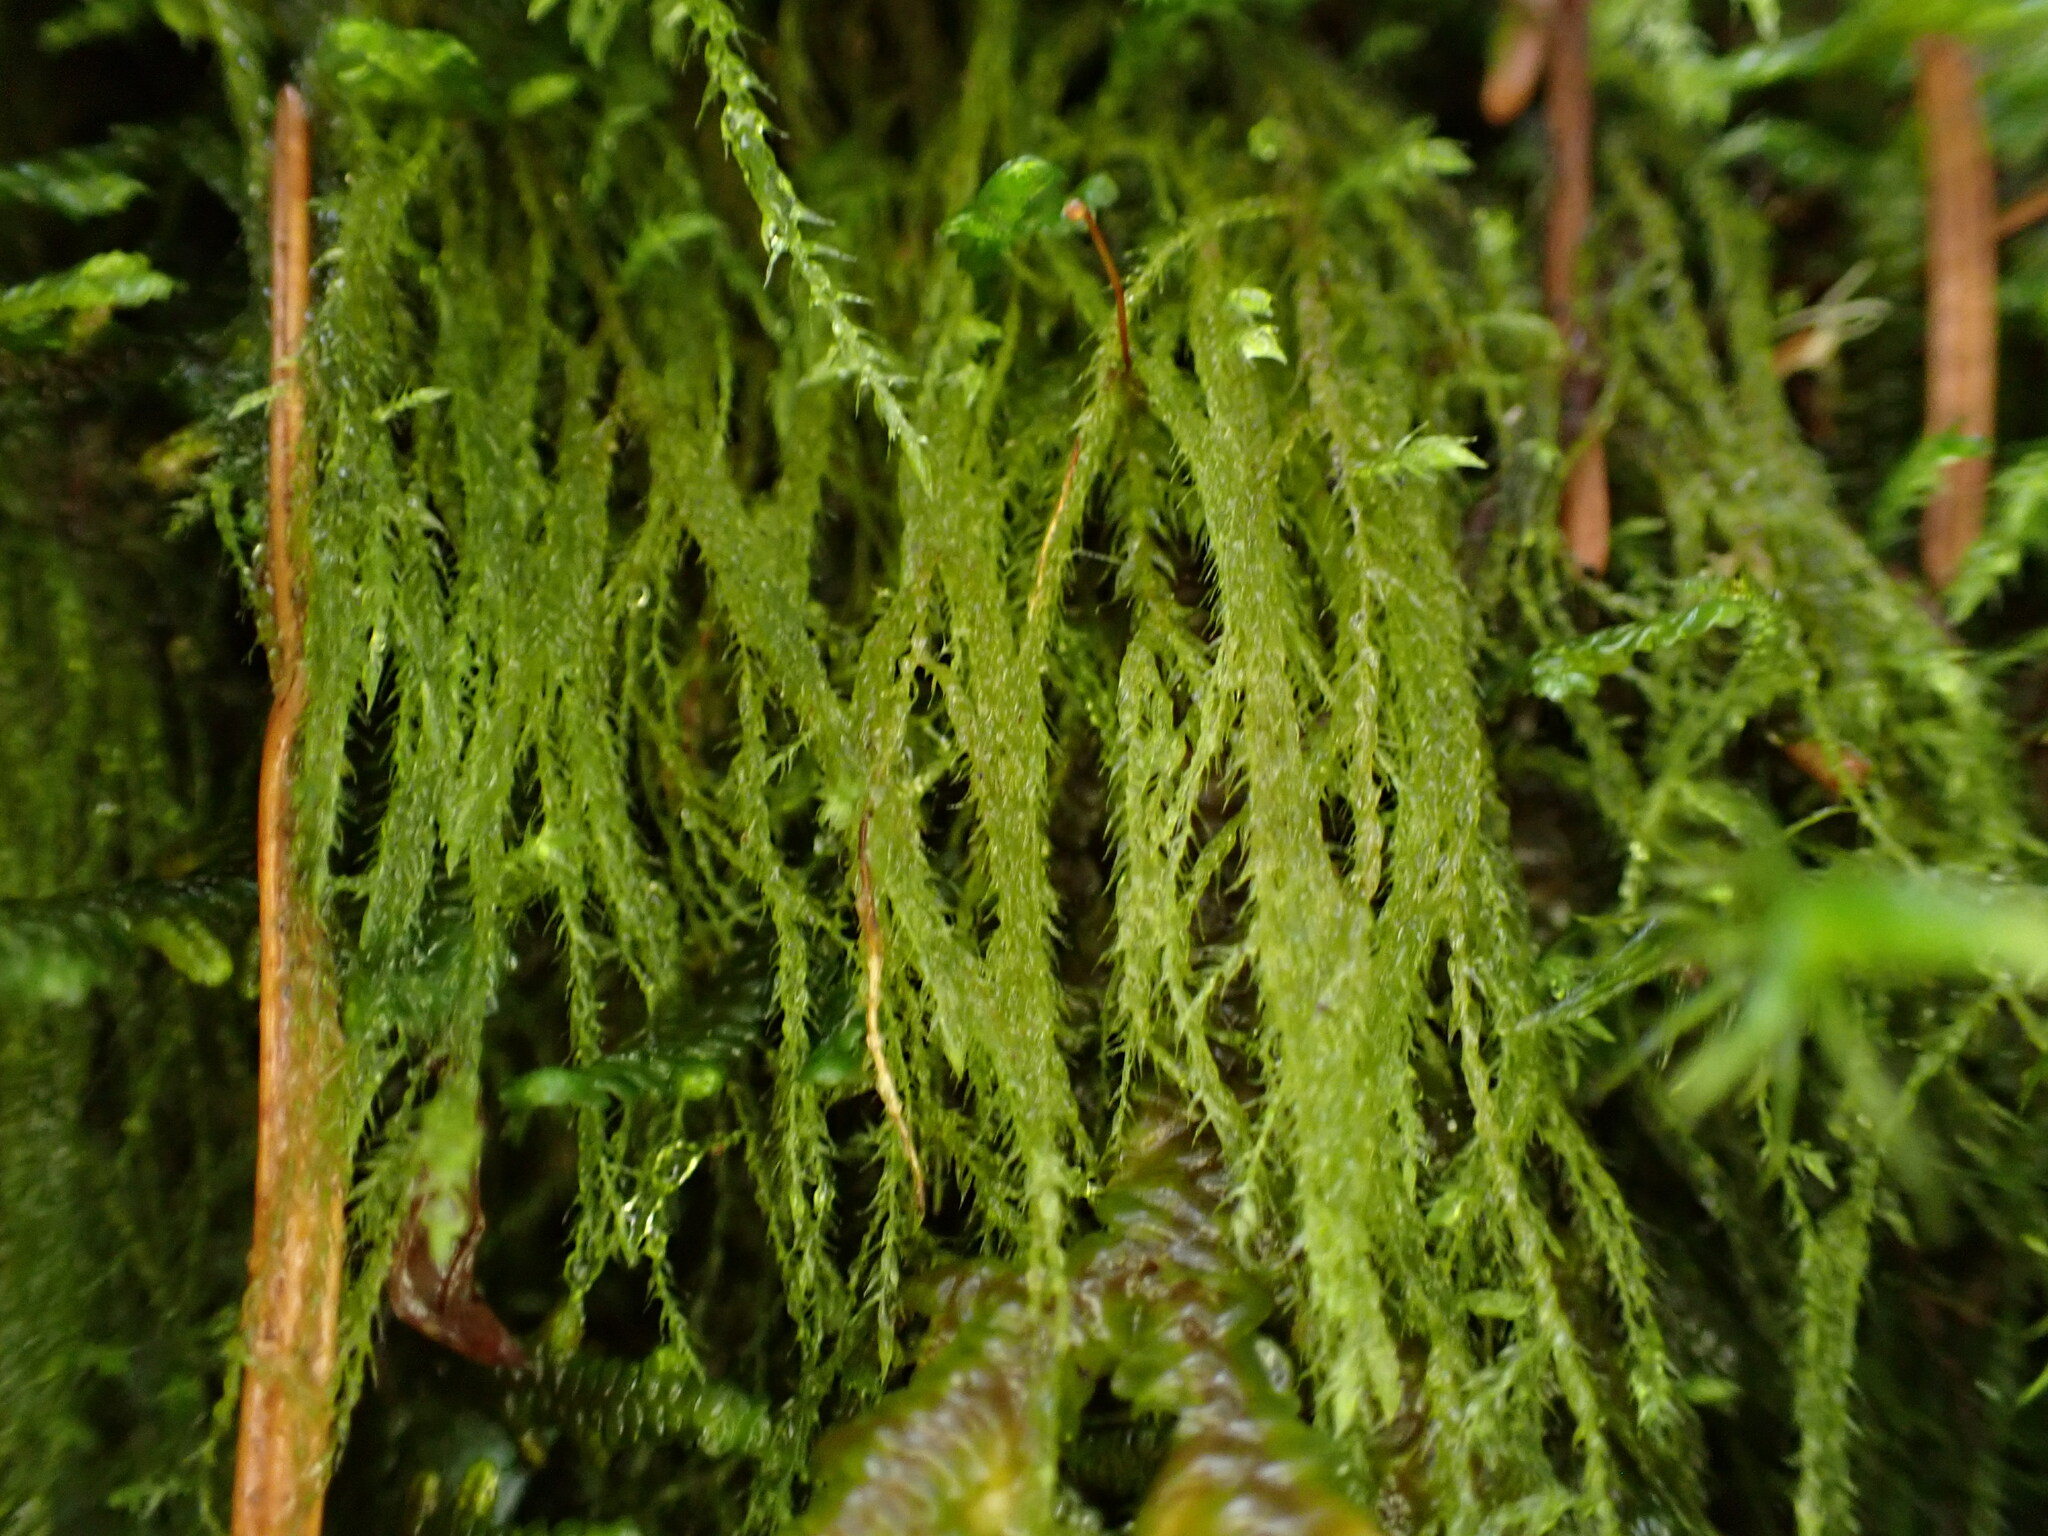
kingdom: Plantae
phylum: Bryophyta
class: Bryopsida
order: Hypnales
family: Lembophyllaceae
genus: Pseudisothecium
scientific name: Pseudisothecium stoloniferum
